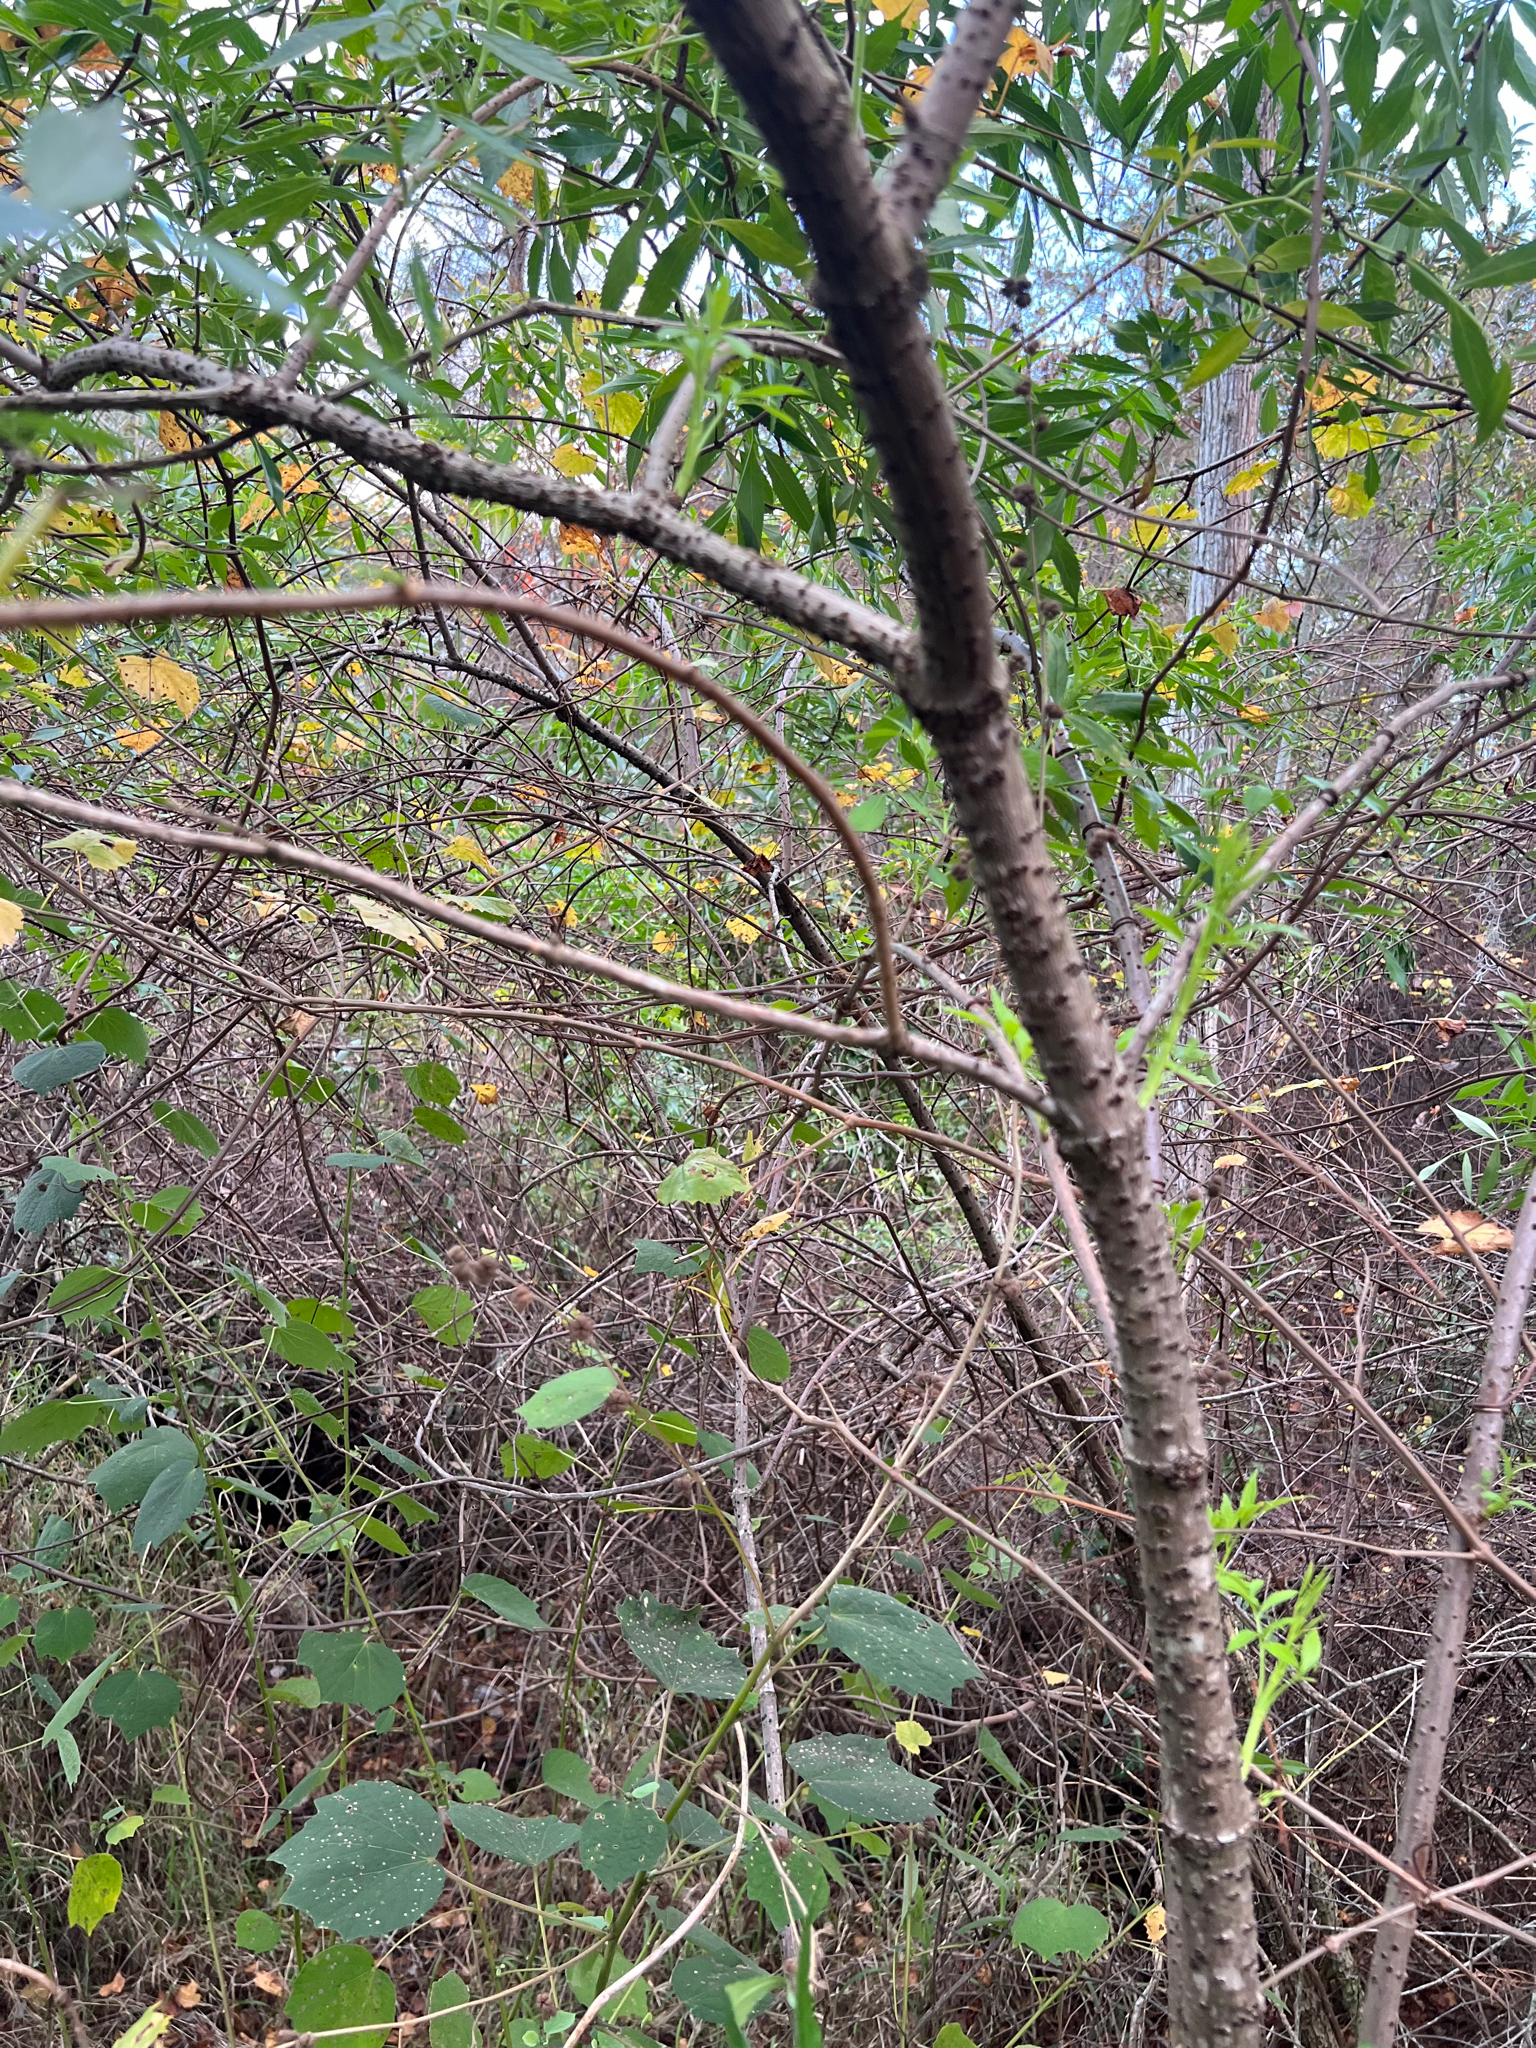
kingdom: Plantae
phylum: Tracheophyta
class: Magnoliopsida
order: Dipsacales
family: Viburnaceae
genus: Sambucus
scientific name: Sambucus canadensis
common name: American elder
